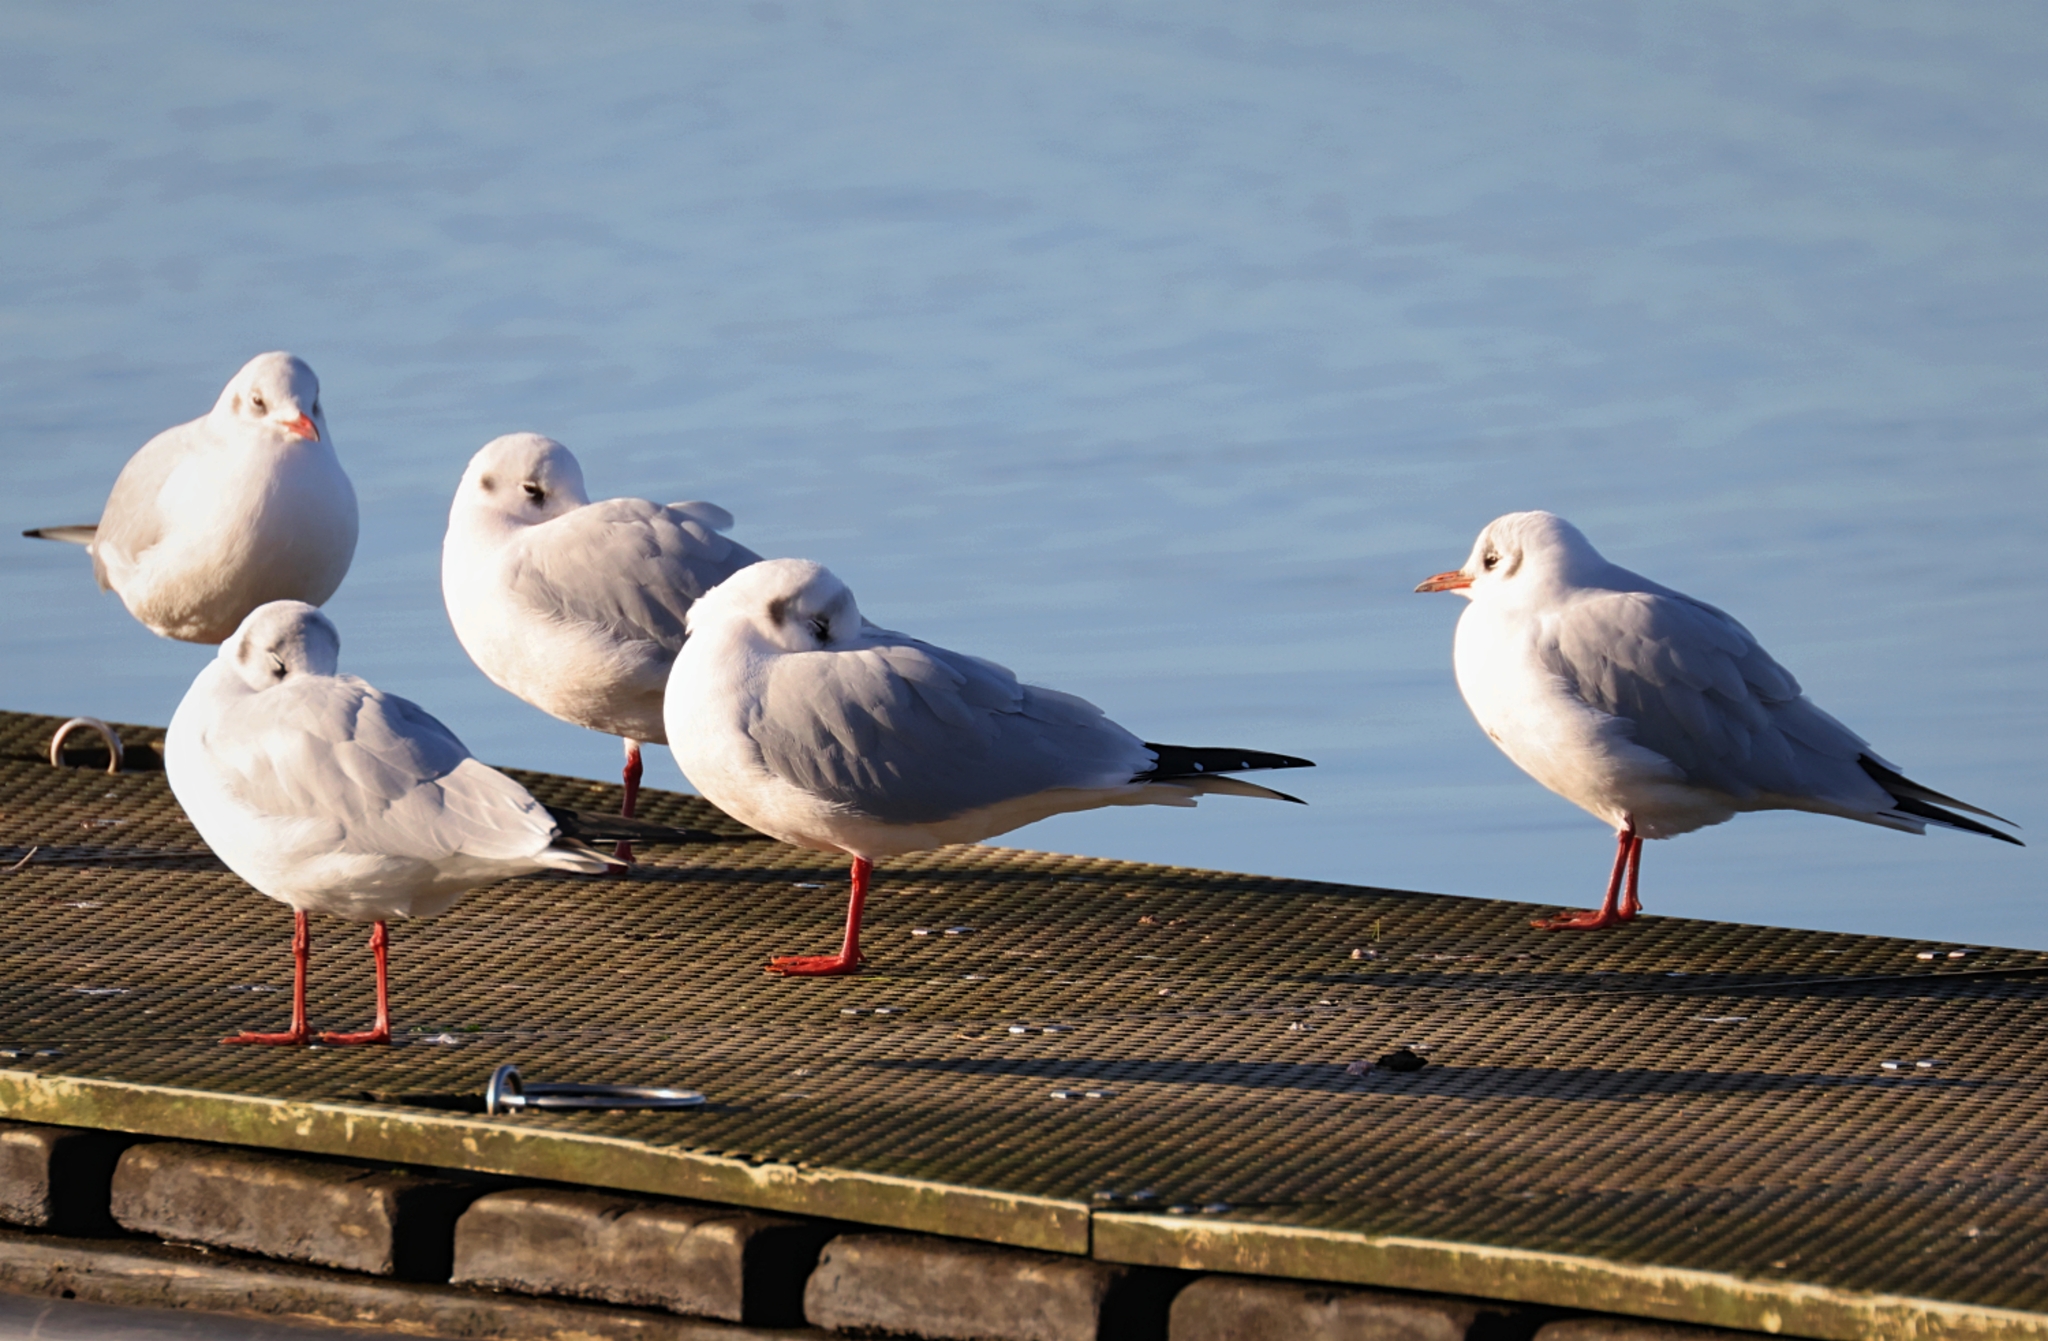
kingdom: Animalia
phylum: Chordata
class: Aves
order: Charadriiformes
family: Laridae
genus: Chroicocephalus
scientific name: Chroicocephalus ridibundus
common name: Black-headed gull
